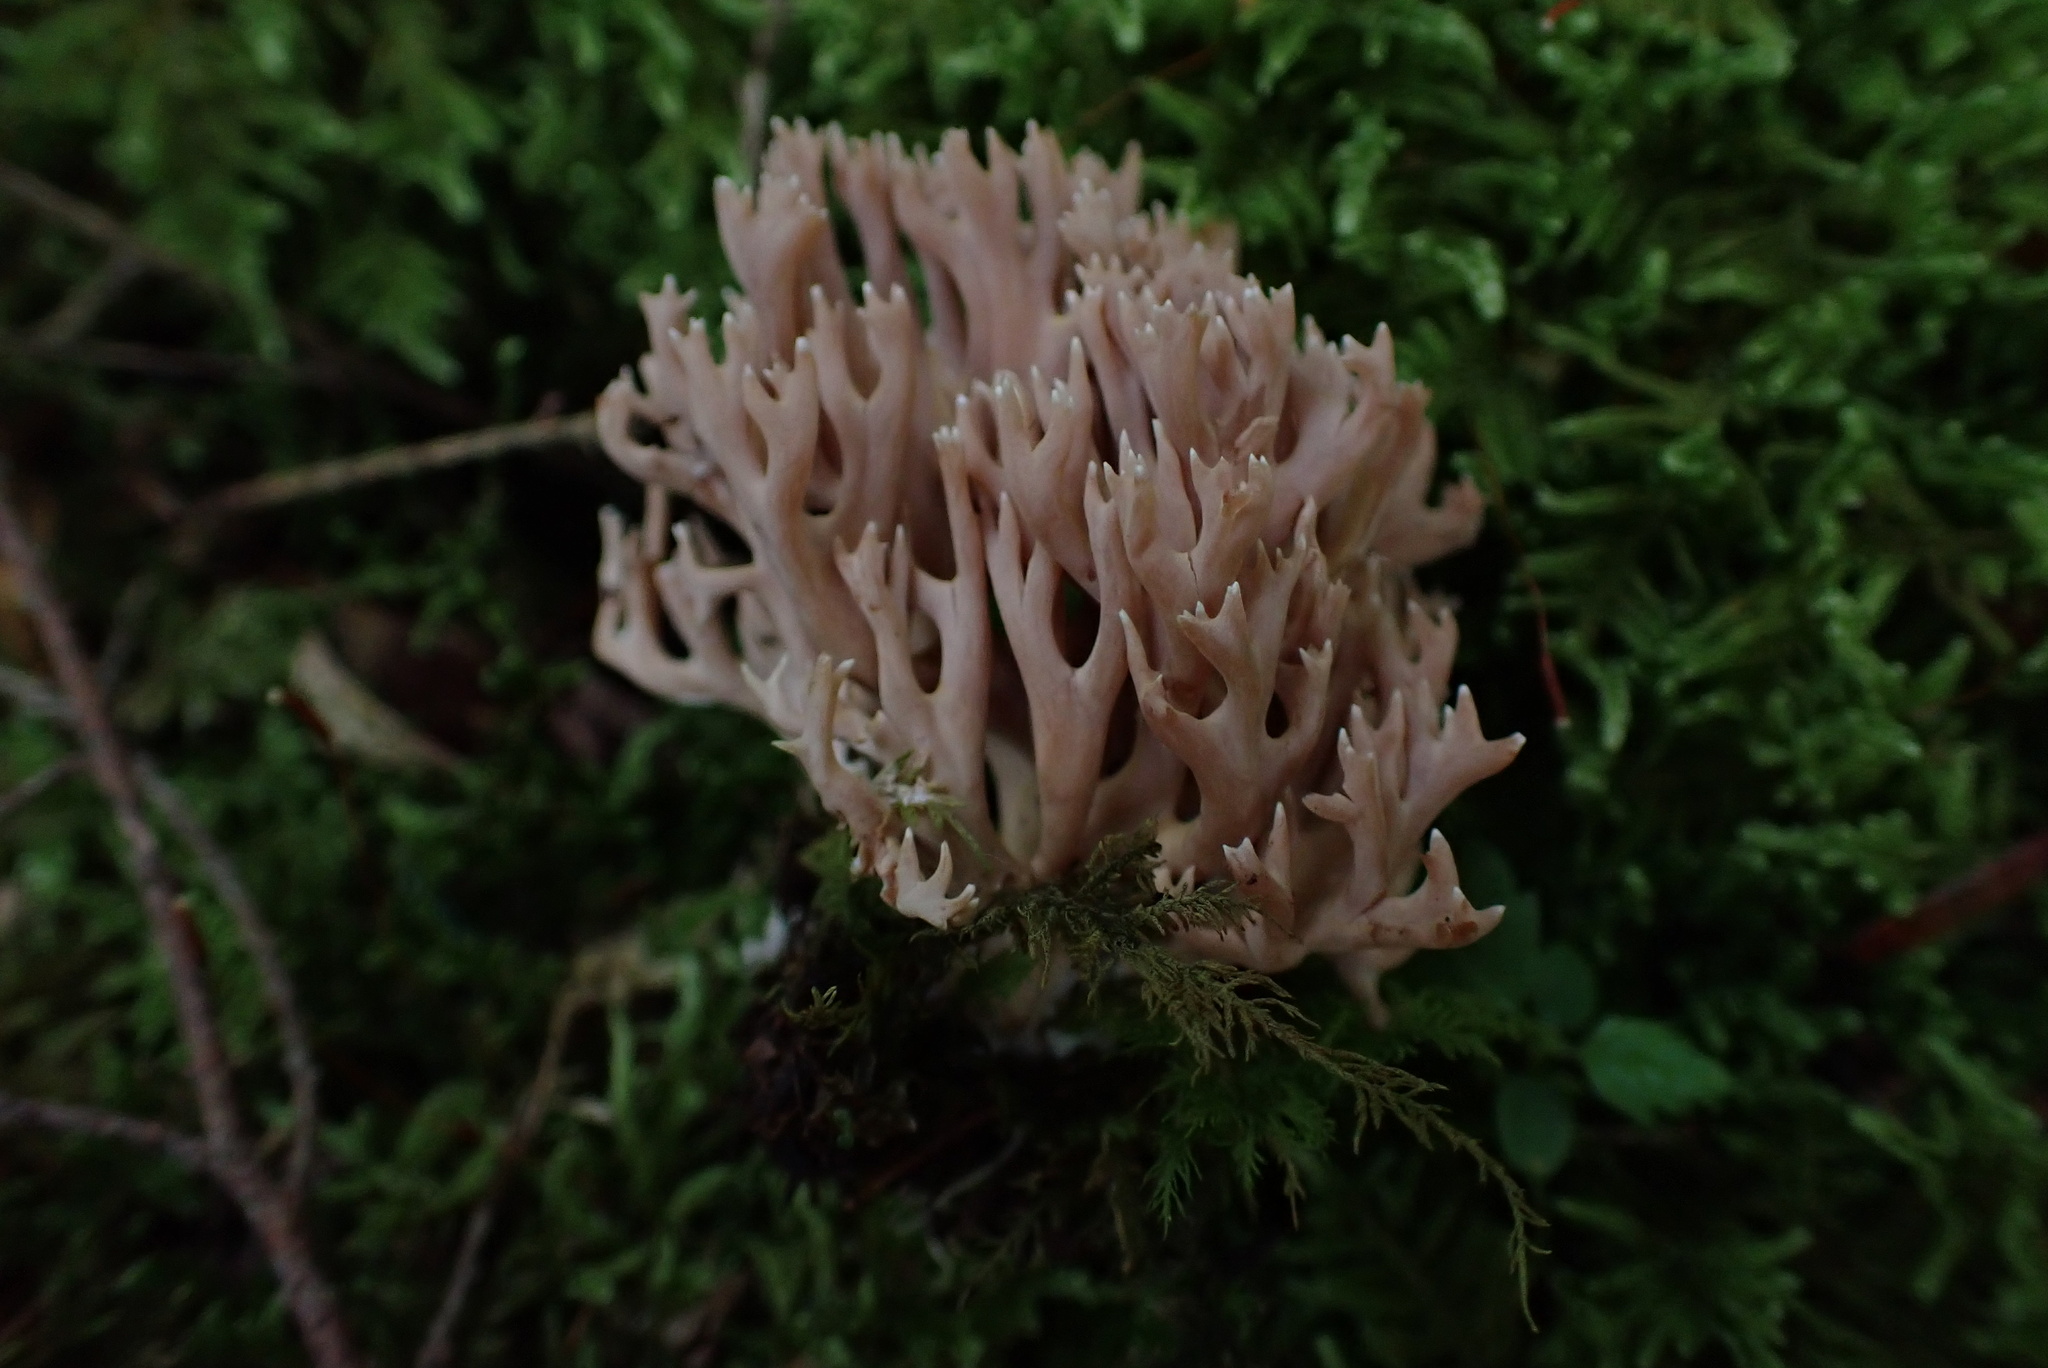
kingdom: Fungi
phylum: Basidiomycota
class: Agaricomycetes
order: Gomphales
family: Gomphaceae
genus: Ramaria
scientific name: Ramaria rubella
